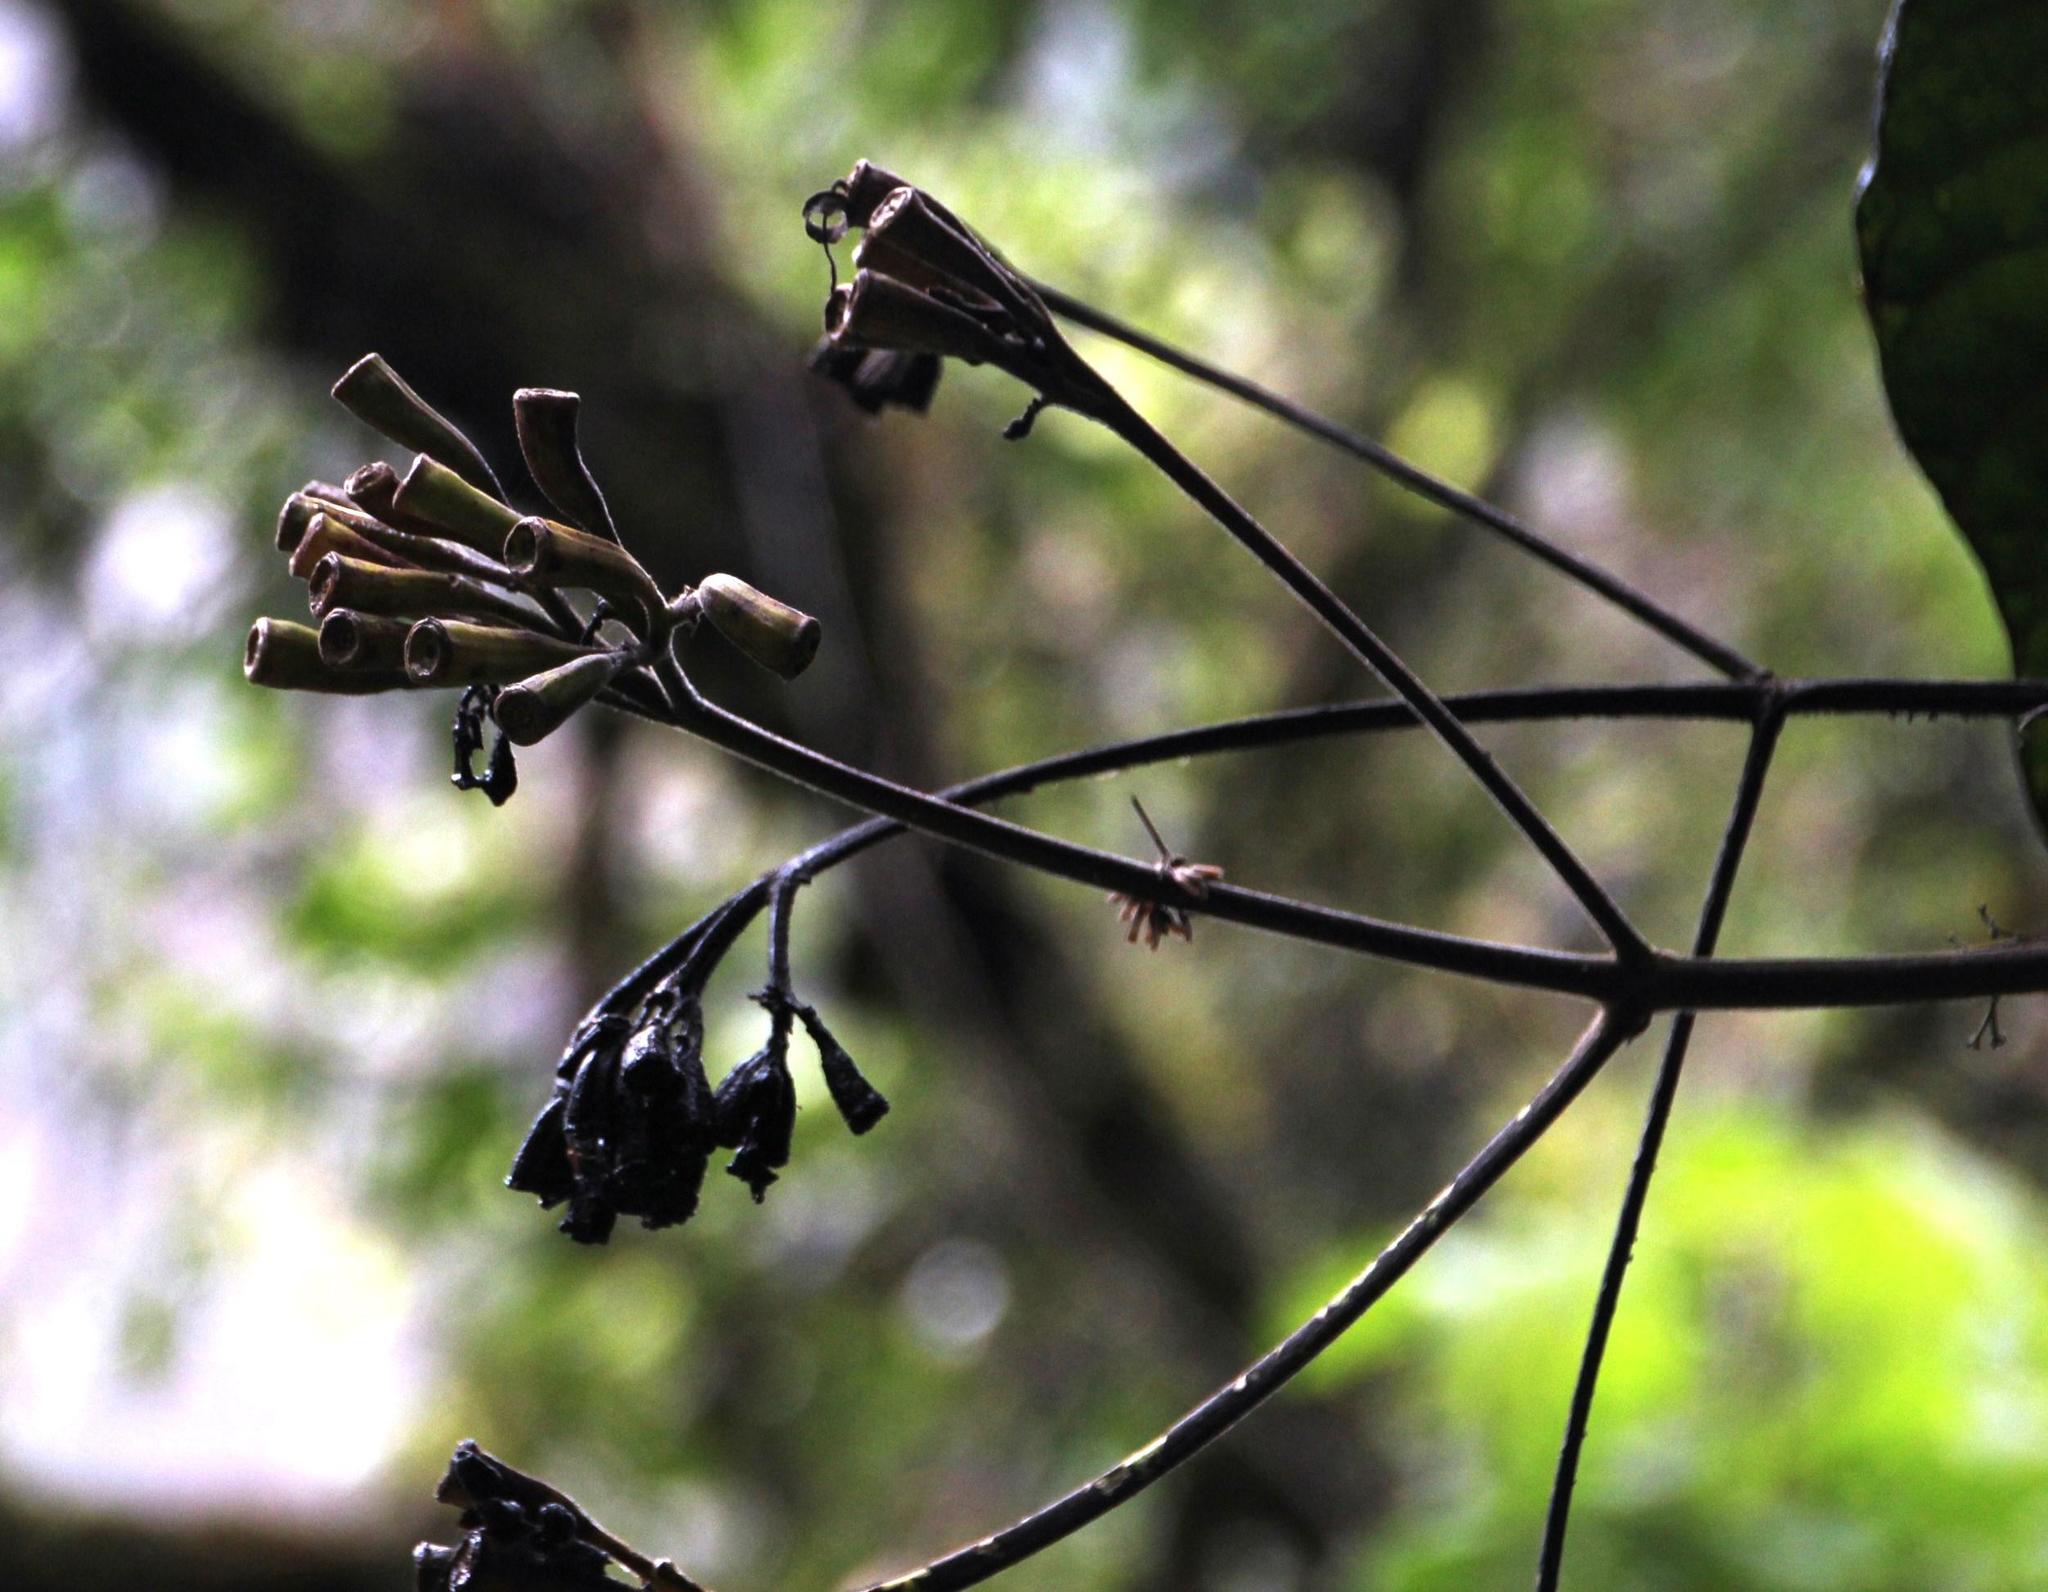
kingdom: Plantae
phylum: Tracheophyta
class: Magnoliopsida
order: Gentianales
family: Rubiaceae
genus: Condaminea
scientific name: Condaminea corymbosa
